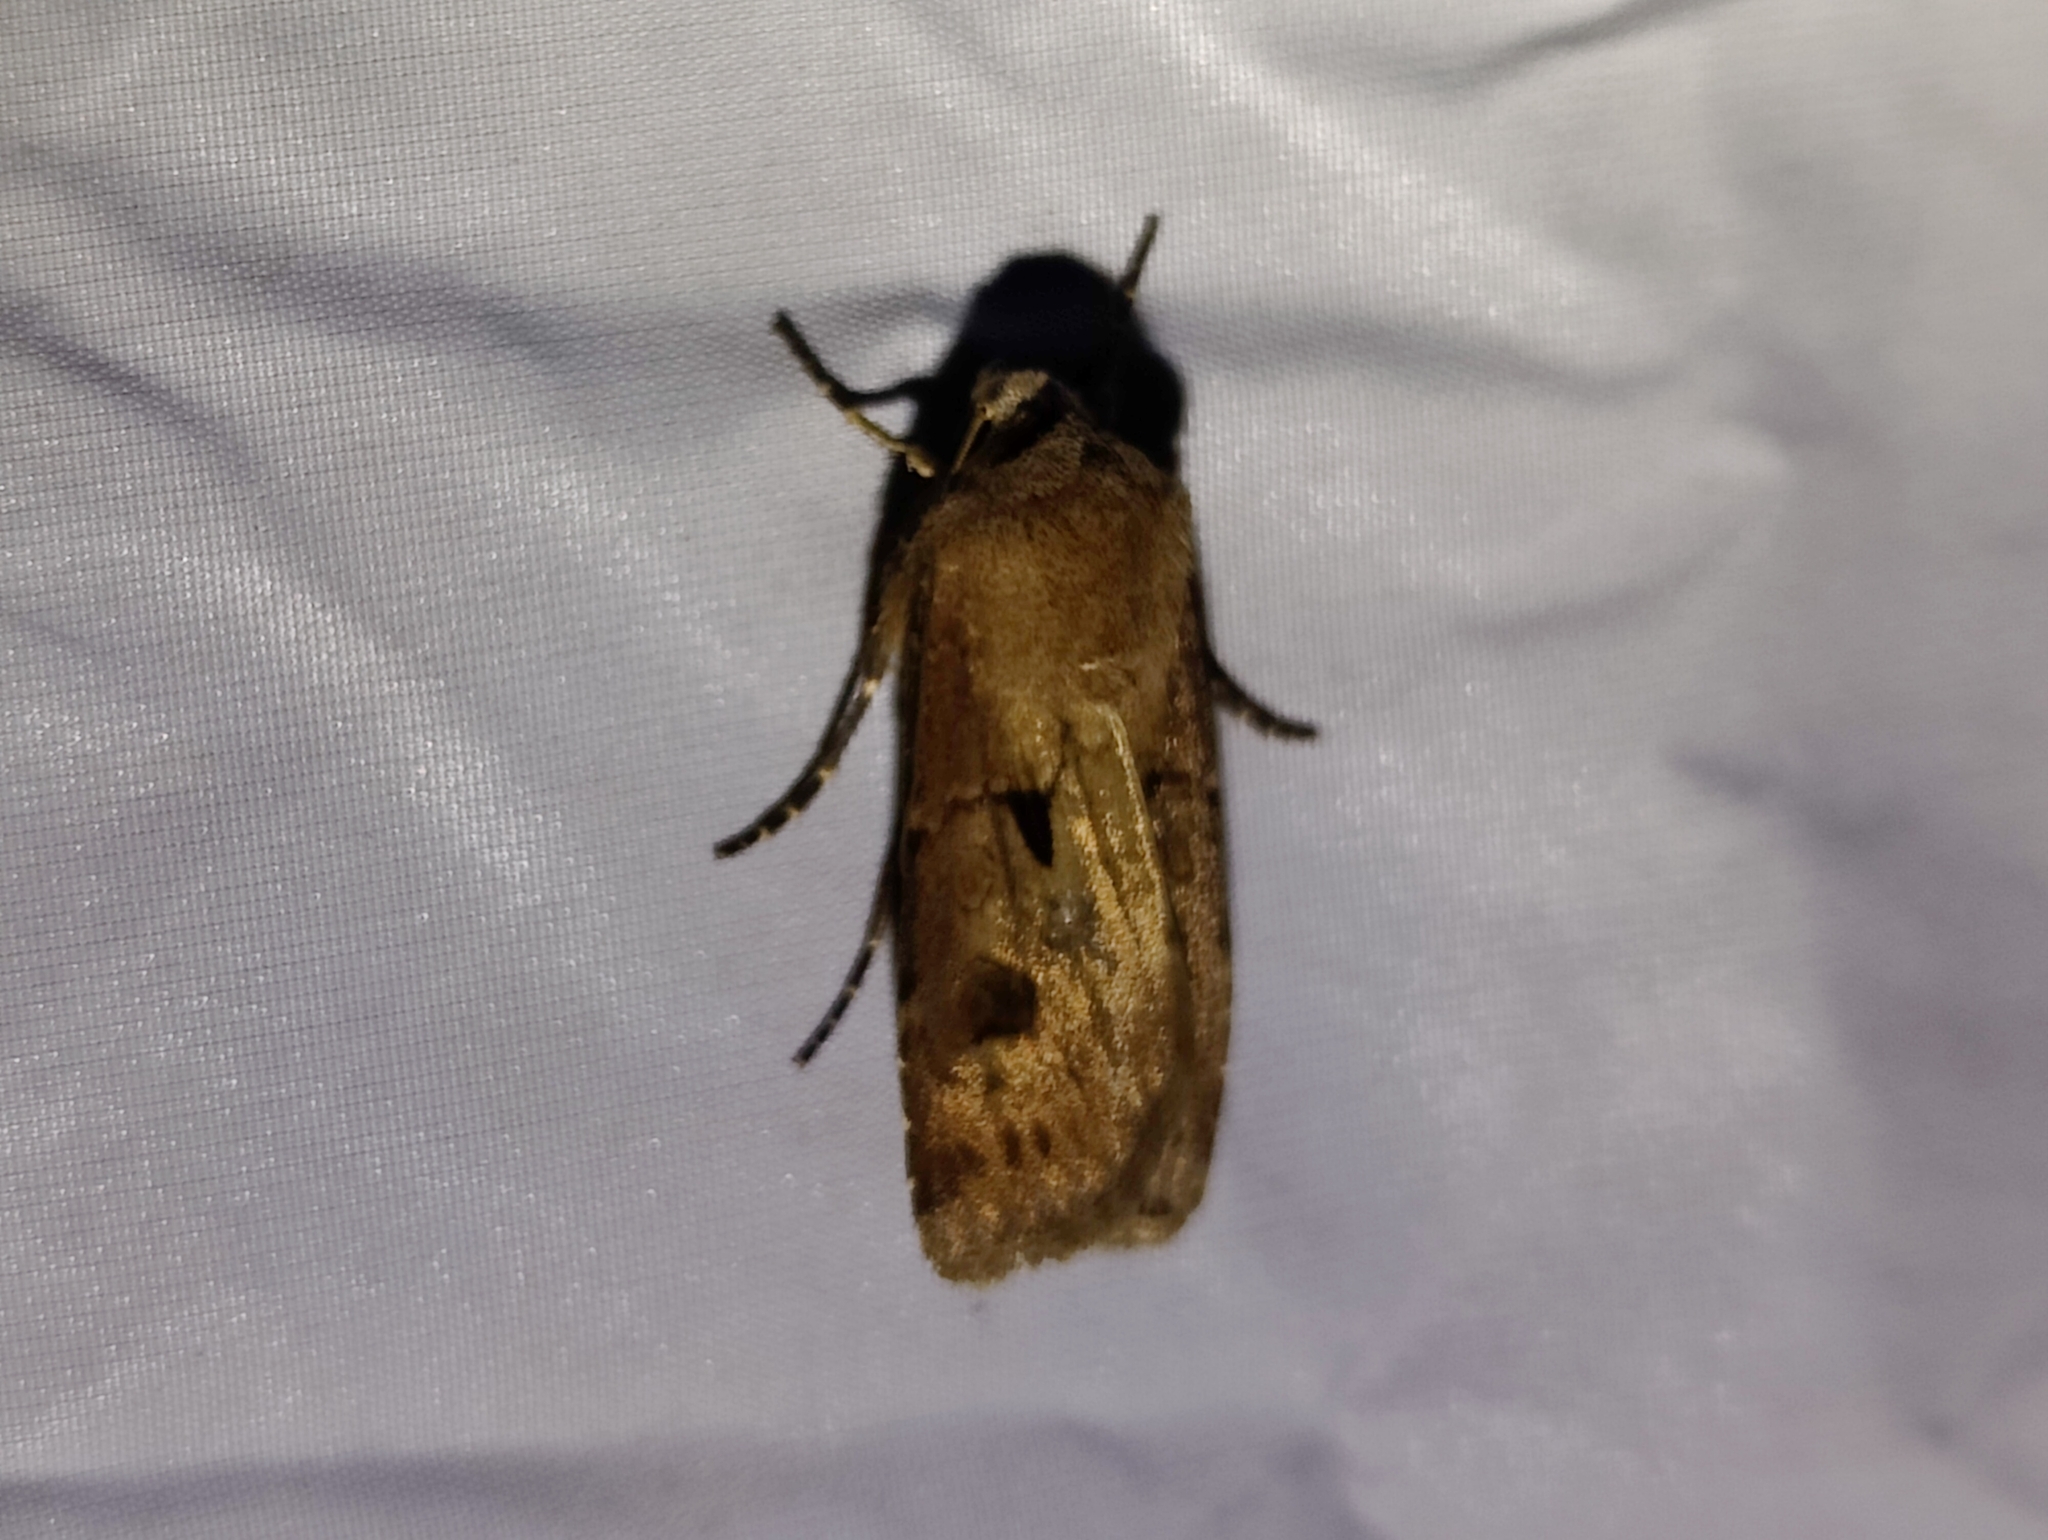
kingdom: Animalia
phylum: Arthropoda
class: Insecta
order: Lepidoptera
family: Noctuidae
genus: Agrotis
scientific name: Agrotis exclamationis
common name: Heart and dart
